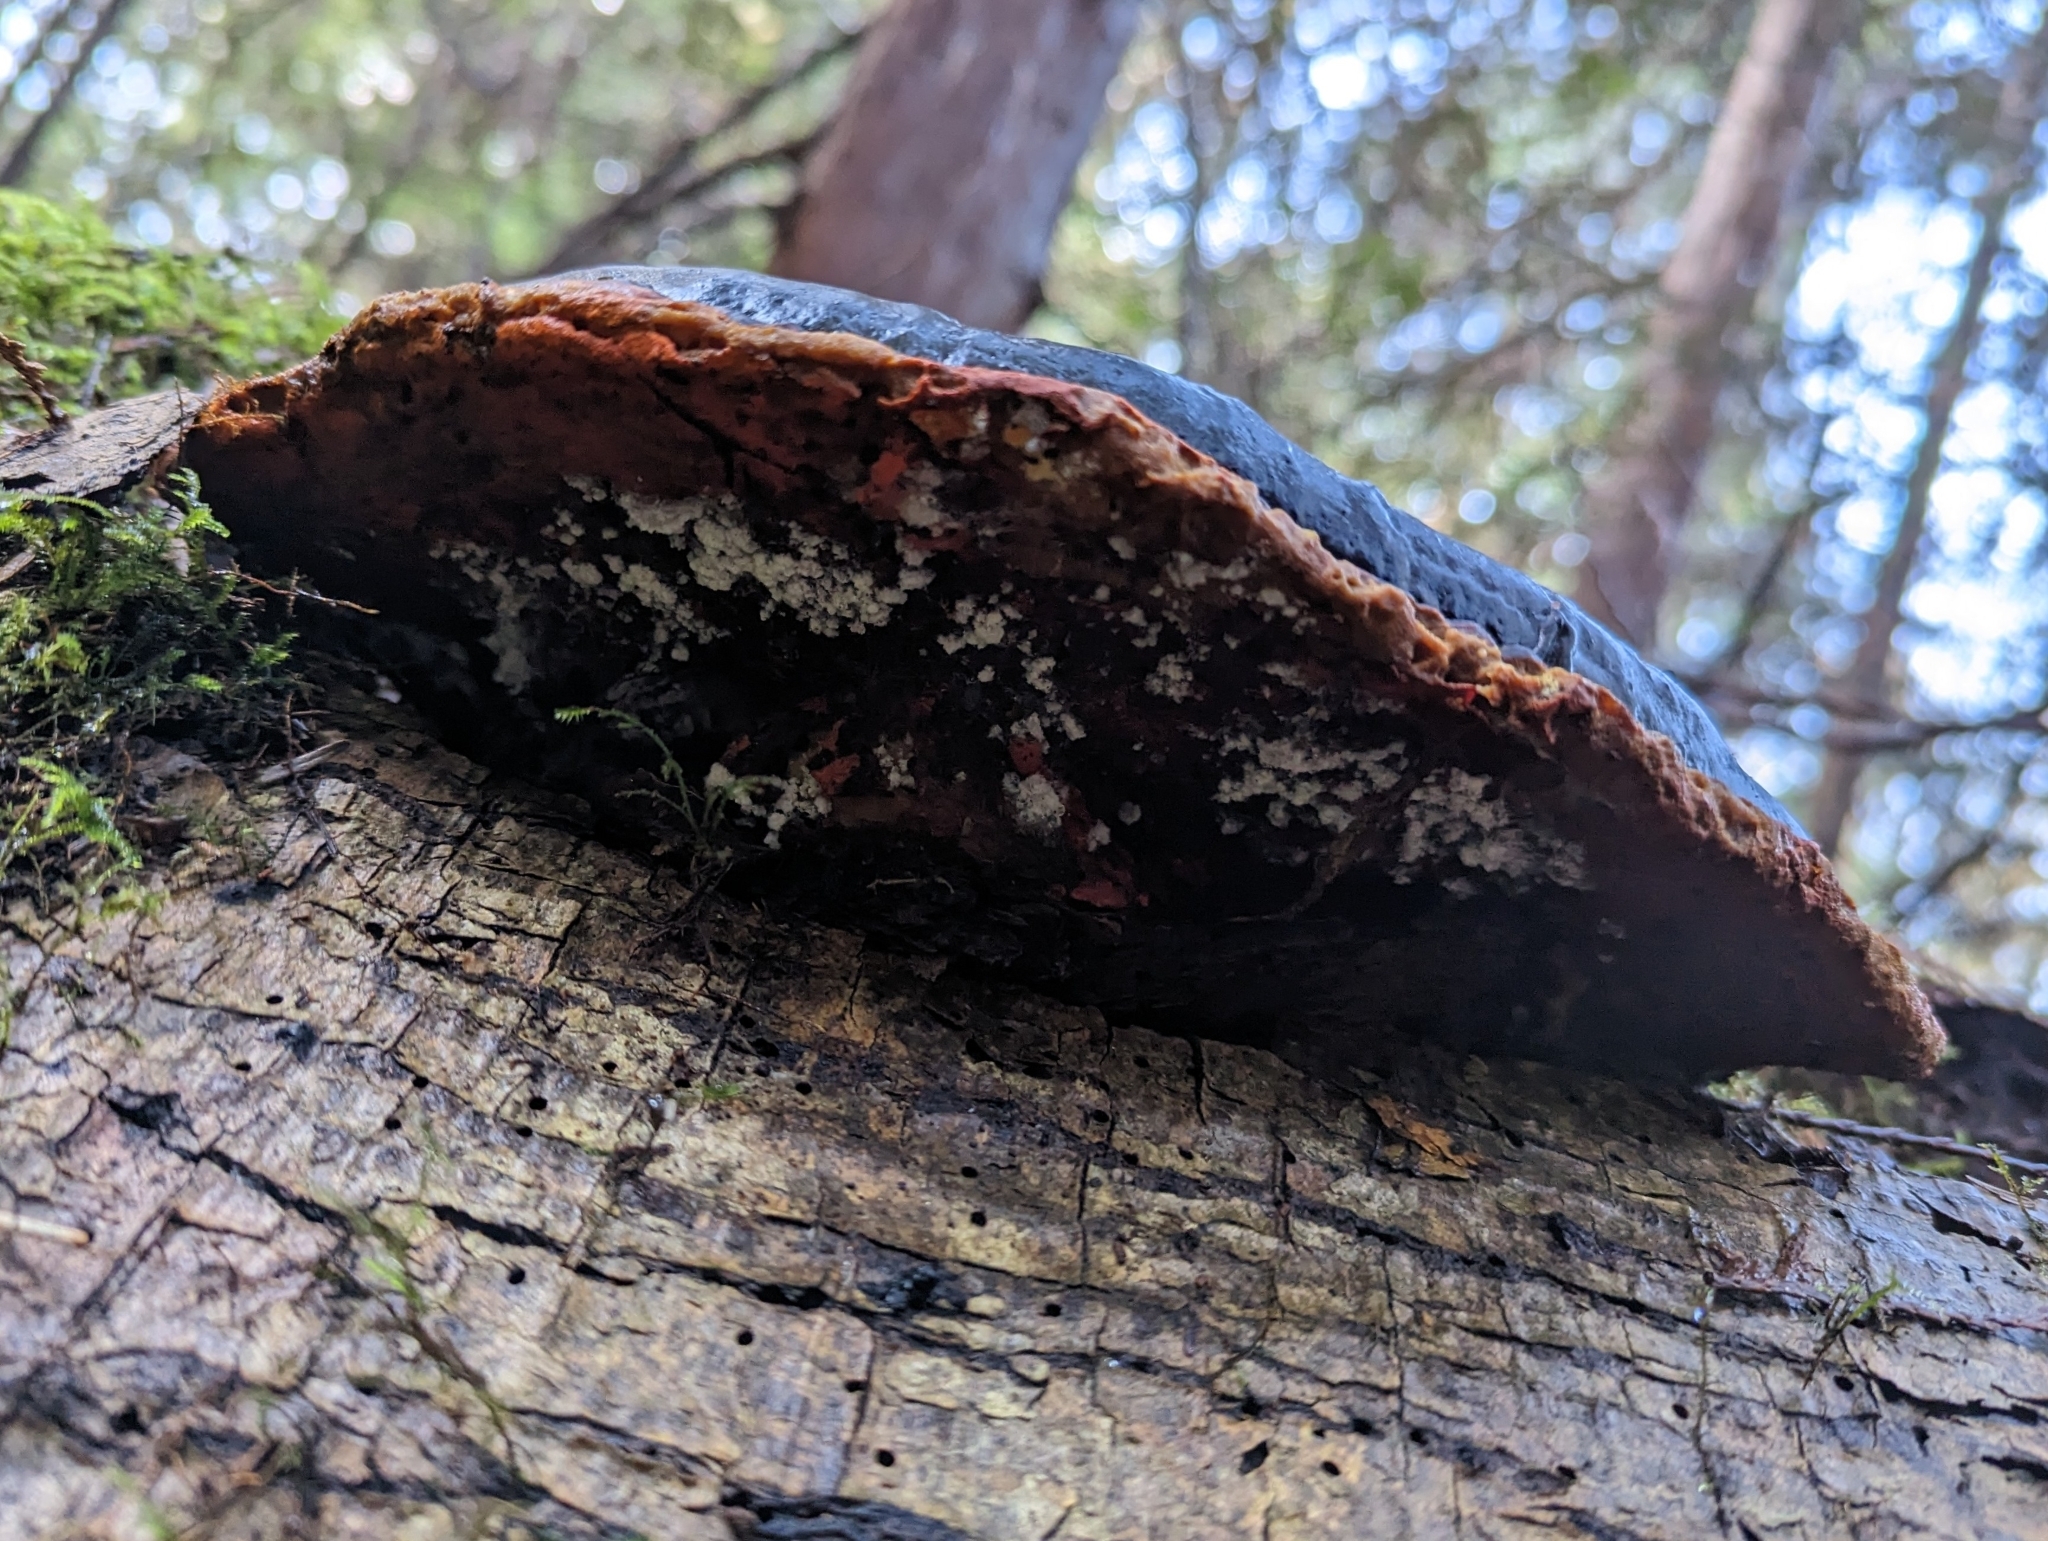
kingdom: Fungi
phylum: Basidiomycota
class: Agaricomycetes
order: Polyporales
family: Fomitopsidaceae
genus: Fomitopsis
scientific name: Fomitopsis mounceae
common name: Northern red belt
